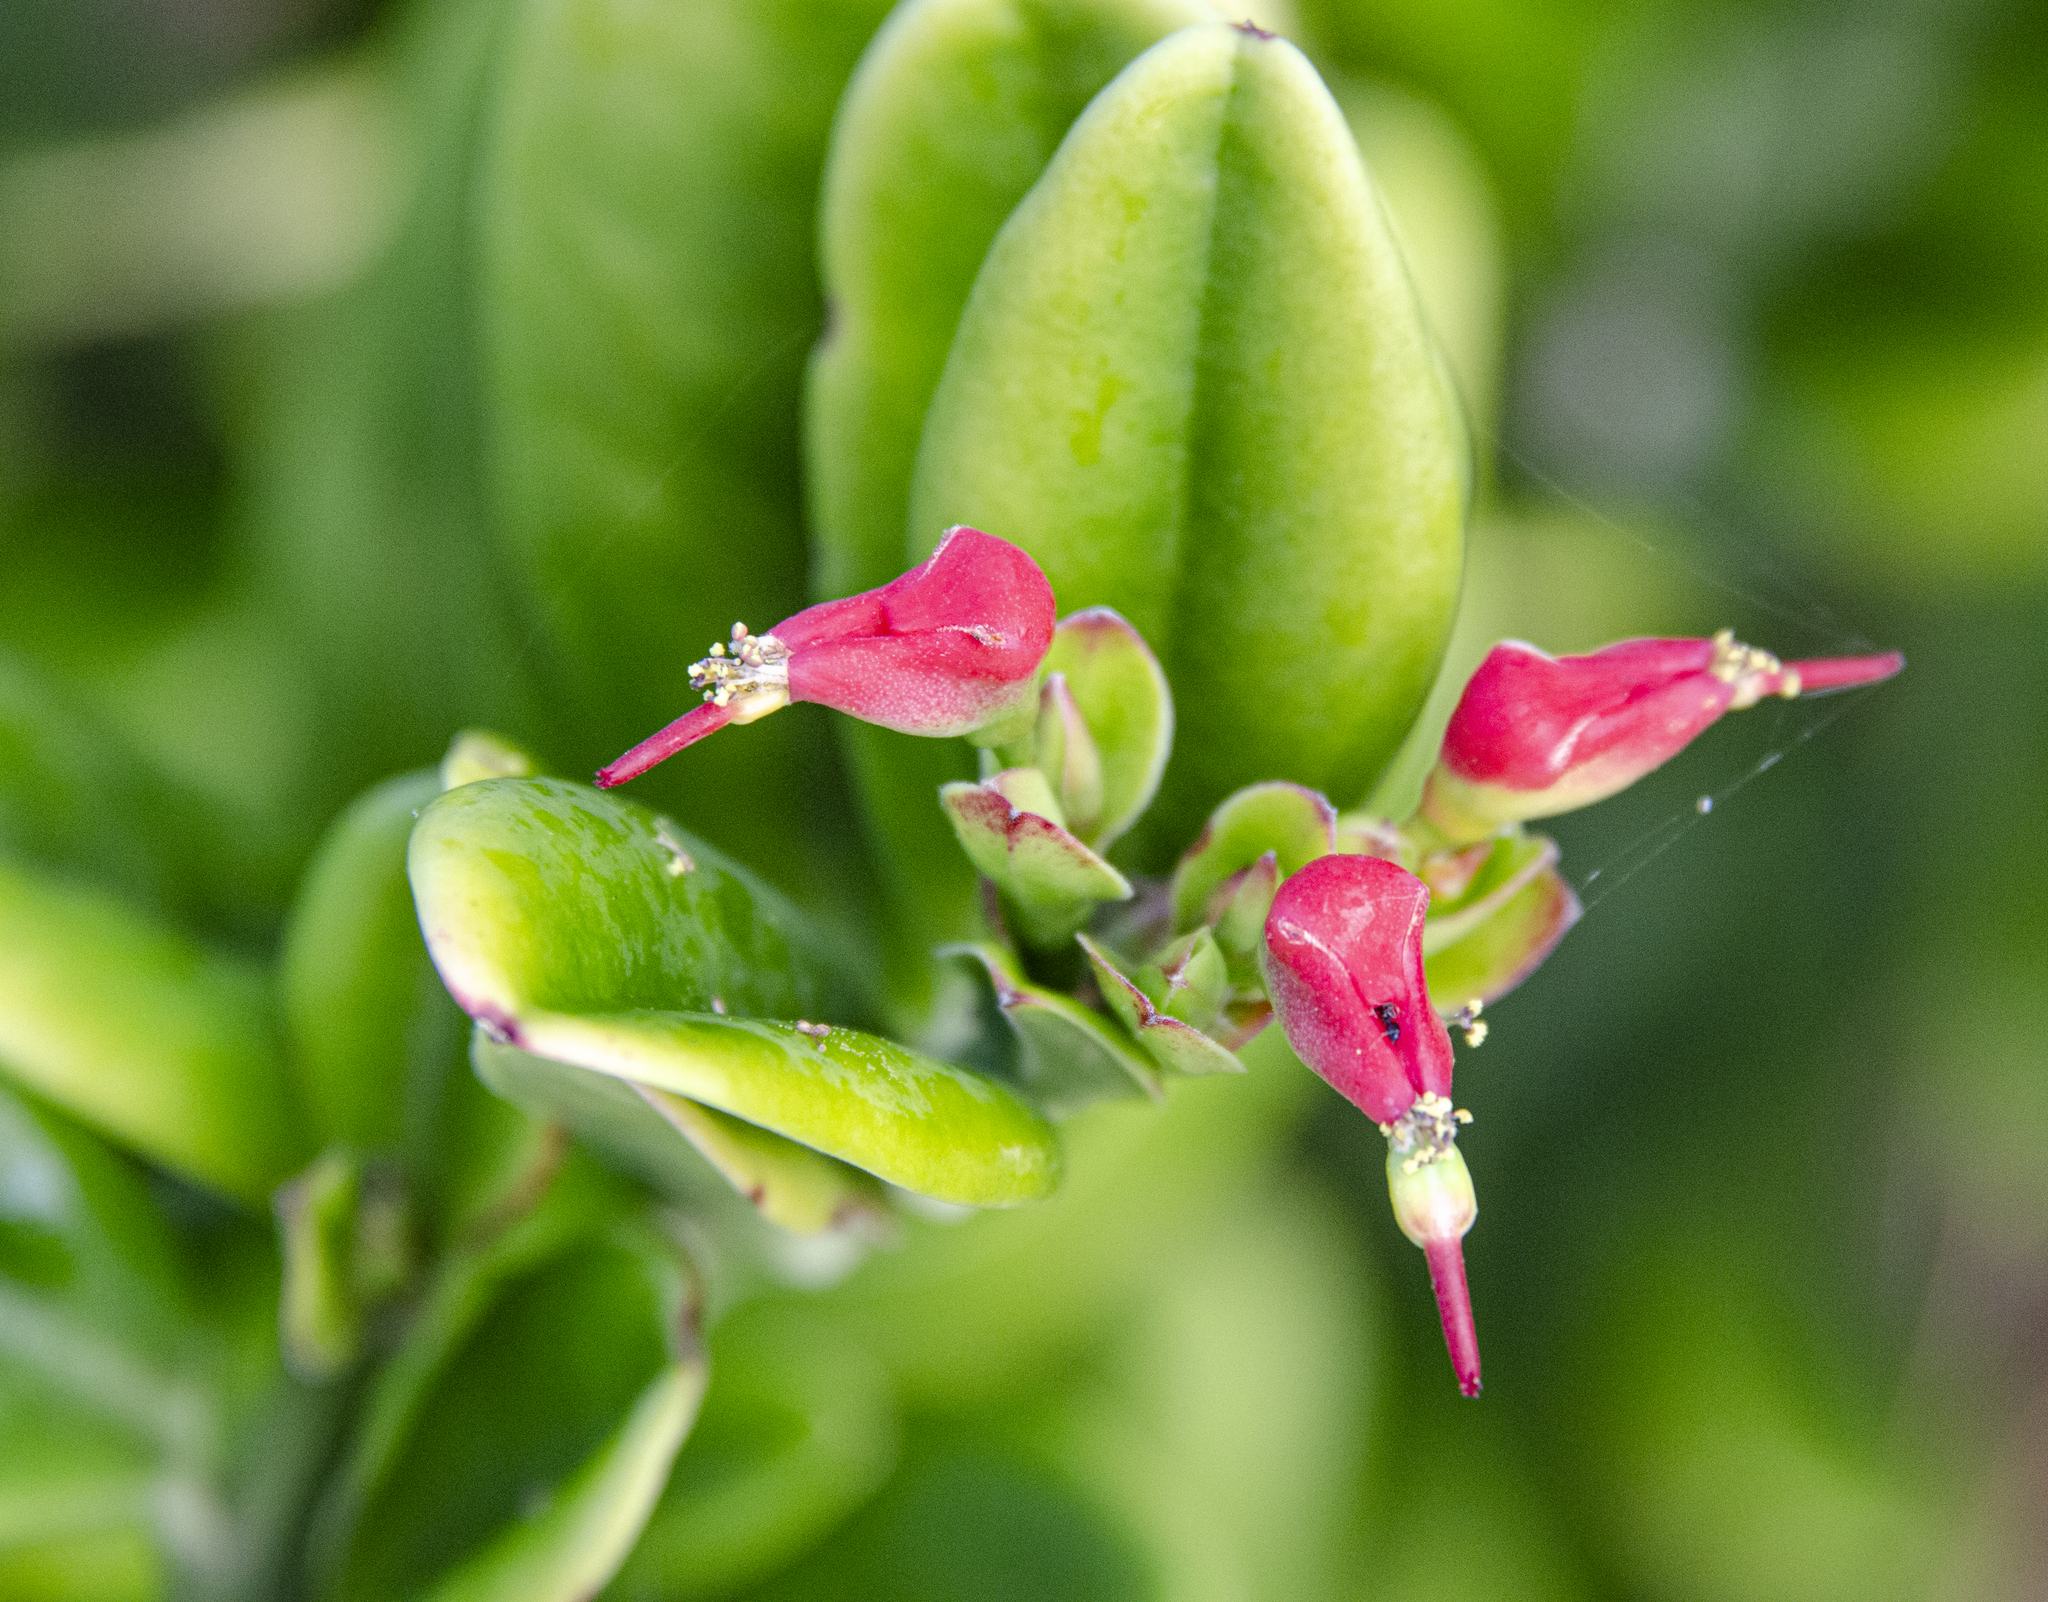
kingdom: Plantae
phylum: Tracheophyta
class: Magnoliopsida
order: Malpighiales
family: Euphorbiaceae
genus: Euphorbia
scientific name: Euphorbia tithymaloides
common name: Slipperplant
